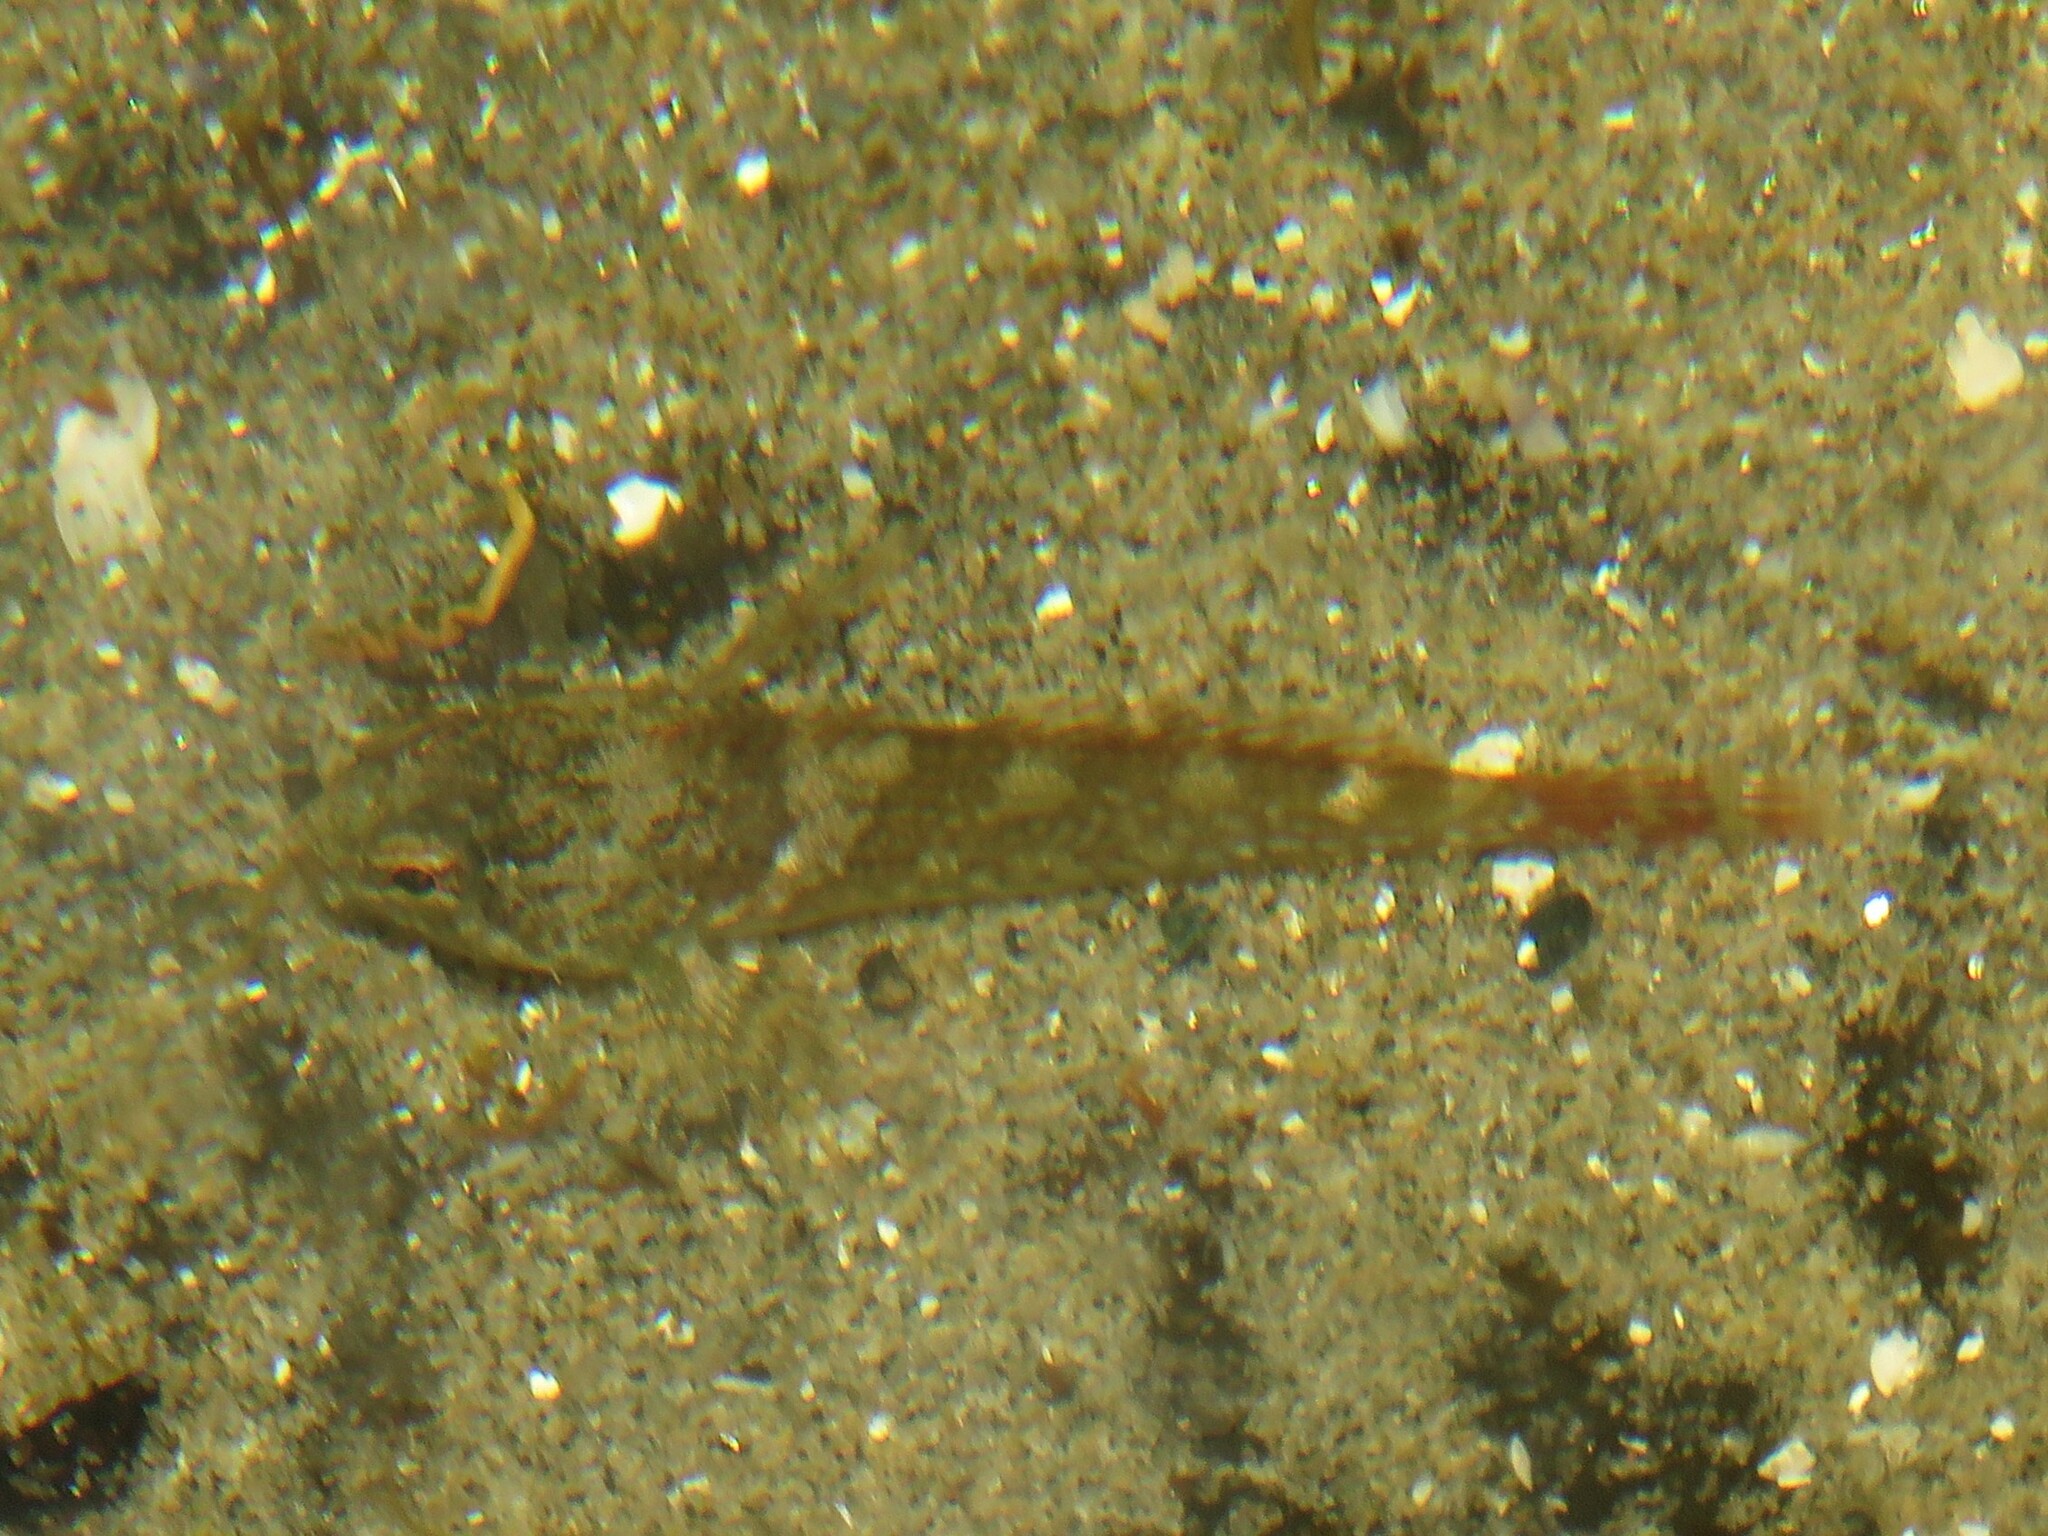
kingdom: Animalia
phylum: Chordata
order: Scorpaeniformes
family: Cottidae
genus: Oligocottus
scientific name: Oligocottus maculosus
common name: Tidepool sculpin
